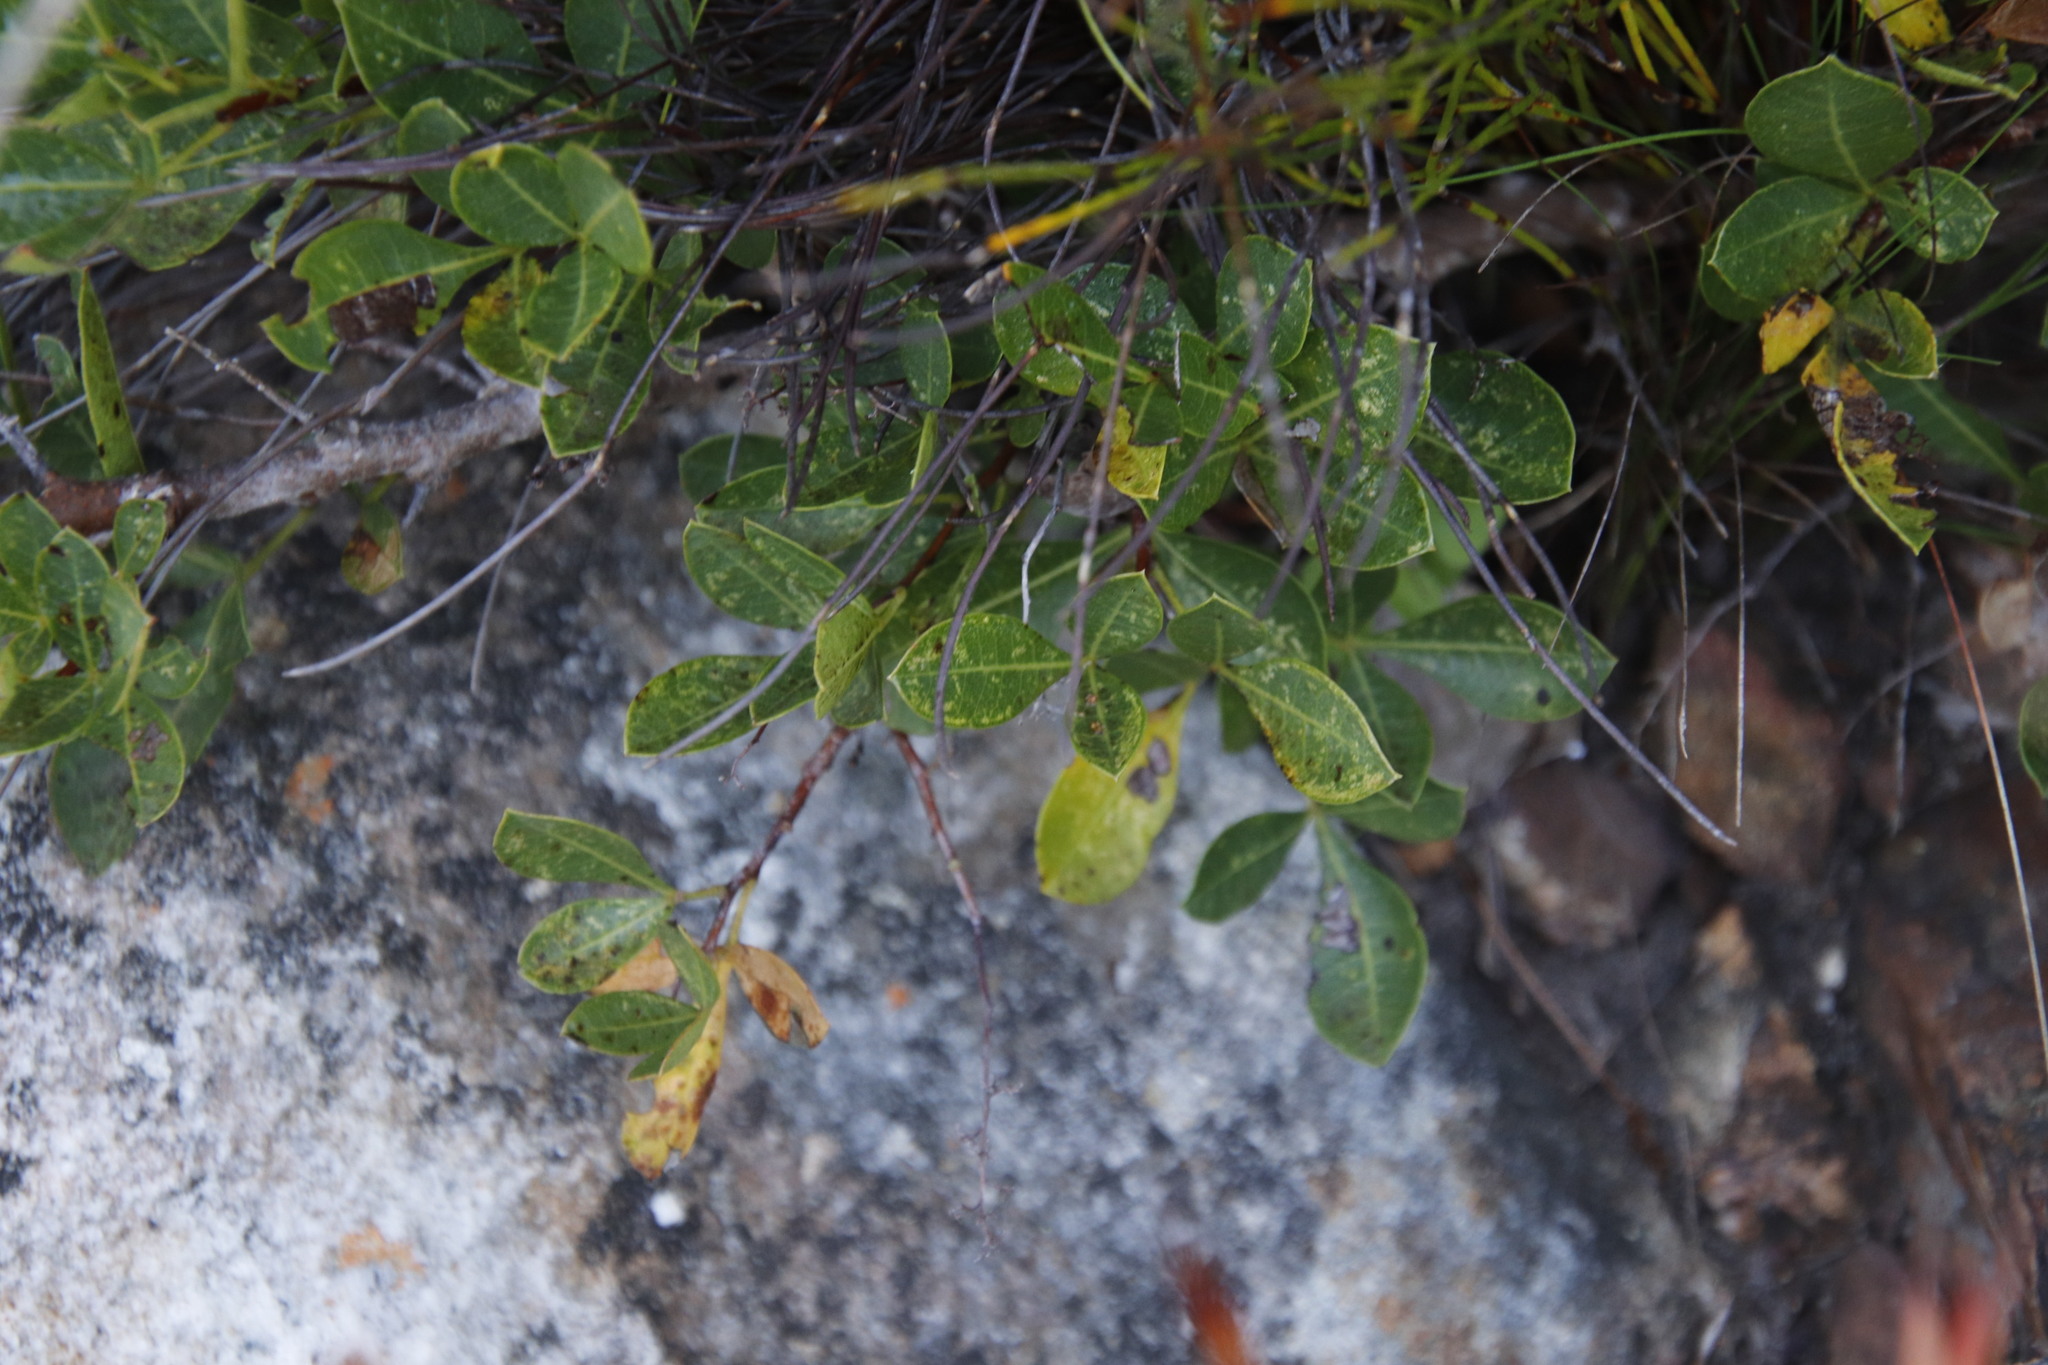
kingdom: Plantae
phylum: Tracheophyta
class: Magnoliopsida
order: Sapindales
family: Anacardiaceae
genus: Searsia
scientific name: Searsia laevigata
